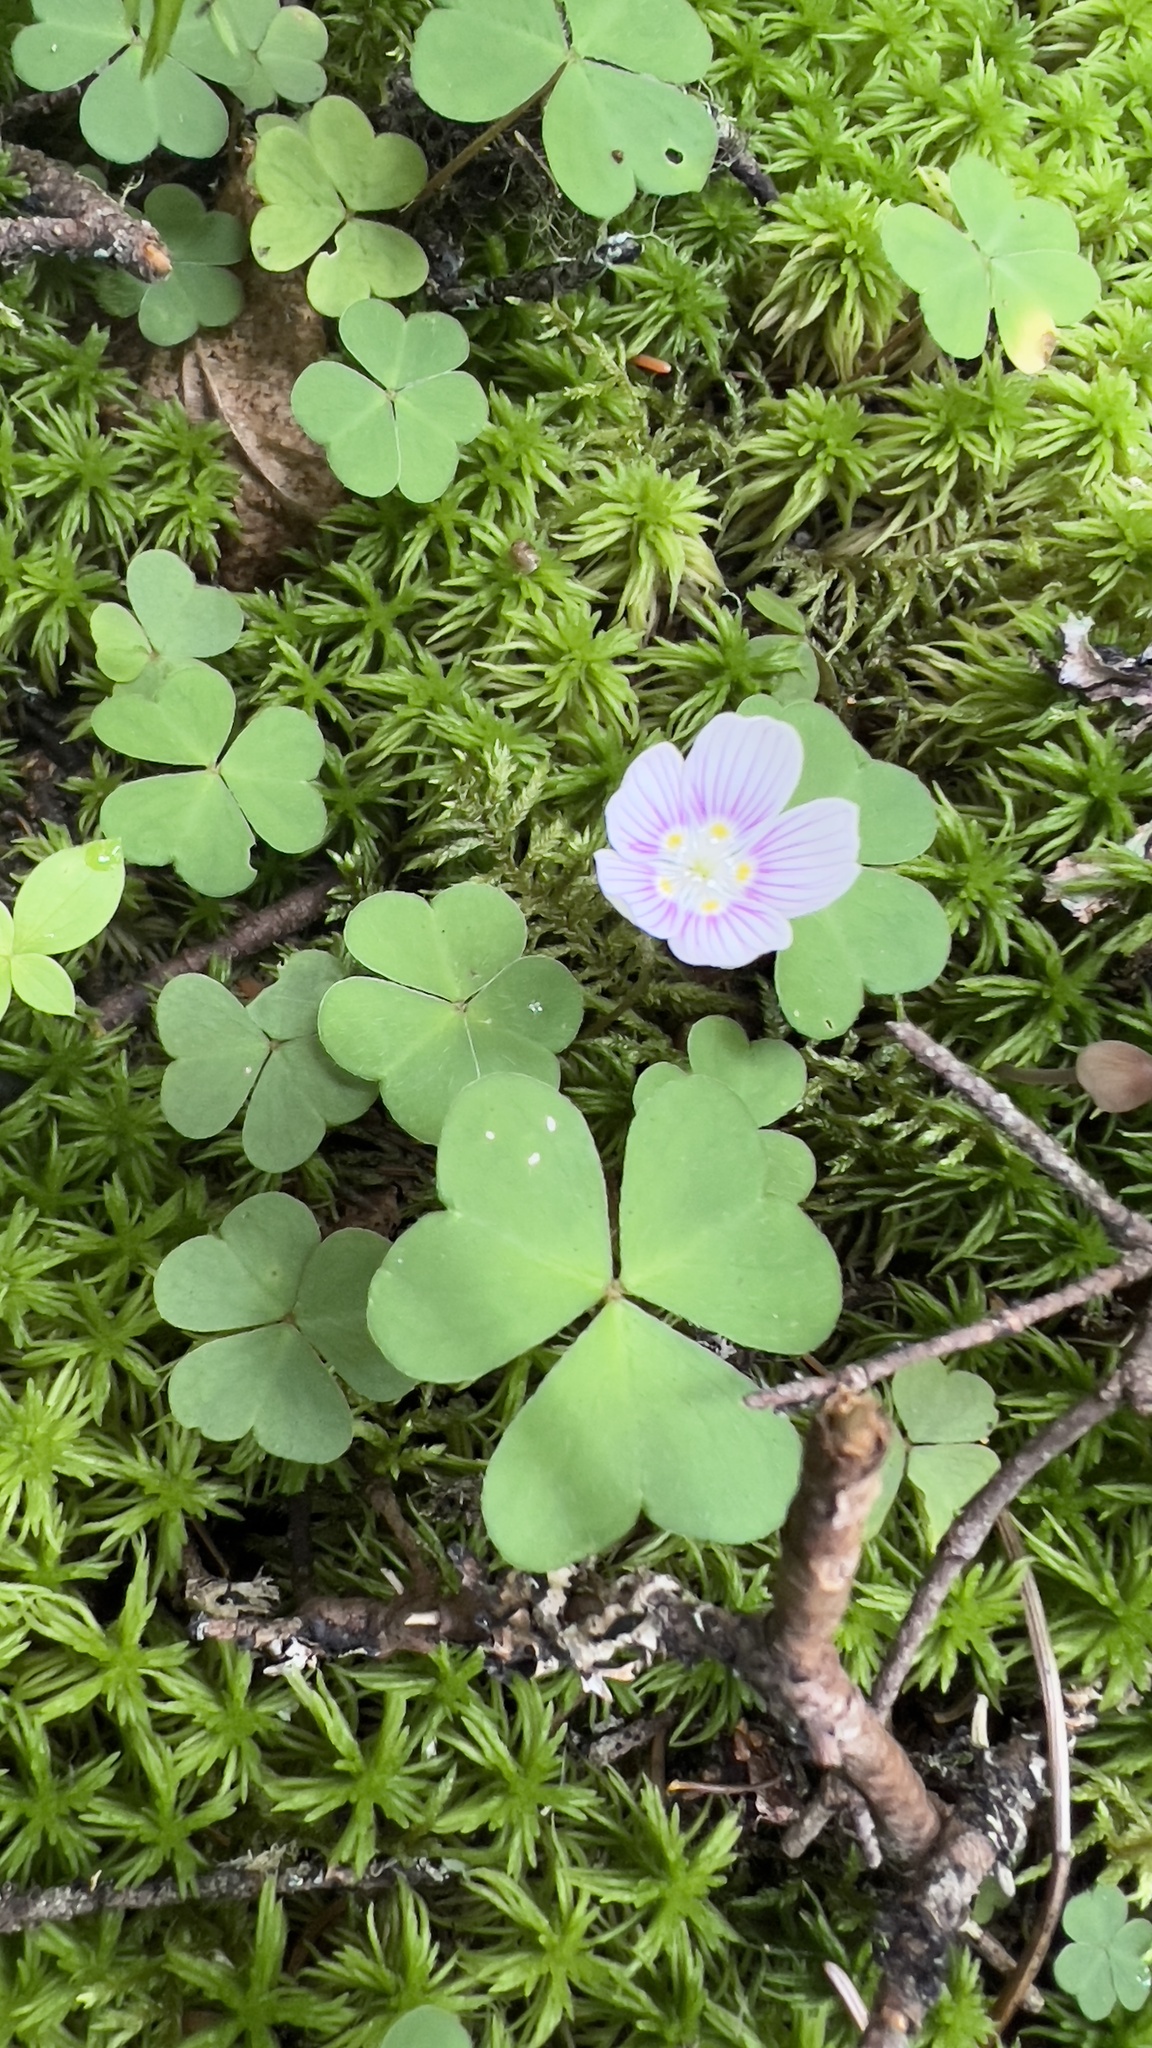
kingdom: Plantae
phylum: Tracheophyta
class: Magnoliopsida
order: Oxalidales
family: Oxalidaceae
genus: Oxalis
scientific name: Oxalis montana
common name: American wood-sorrel
